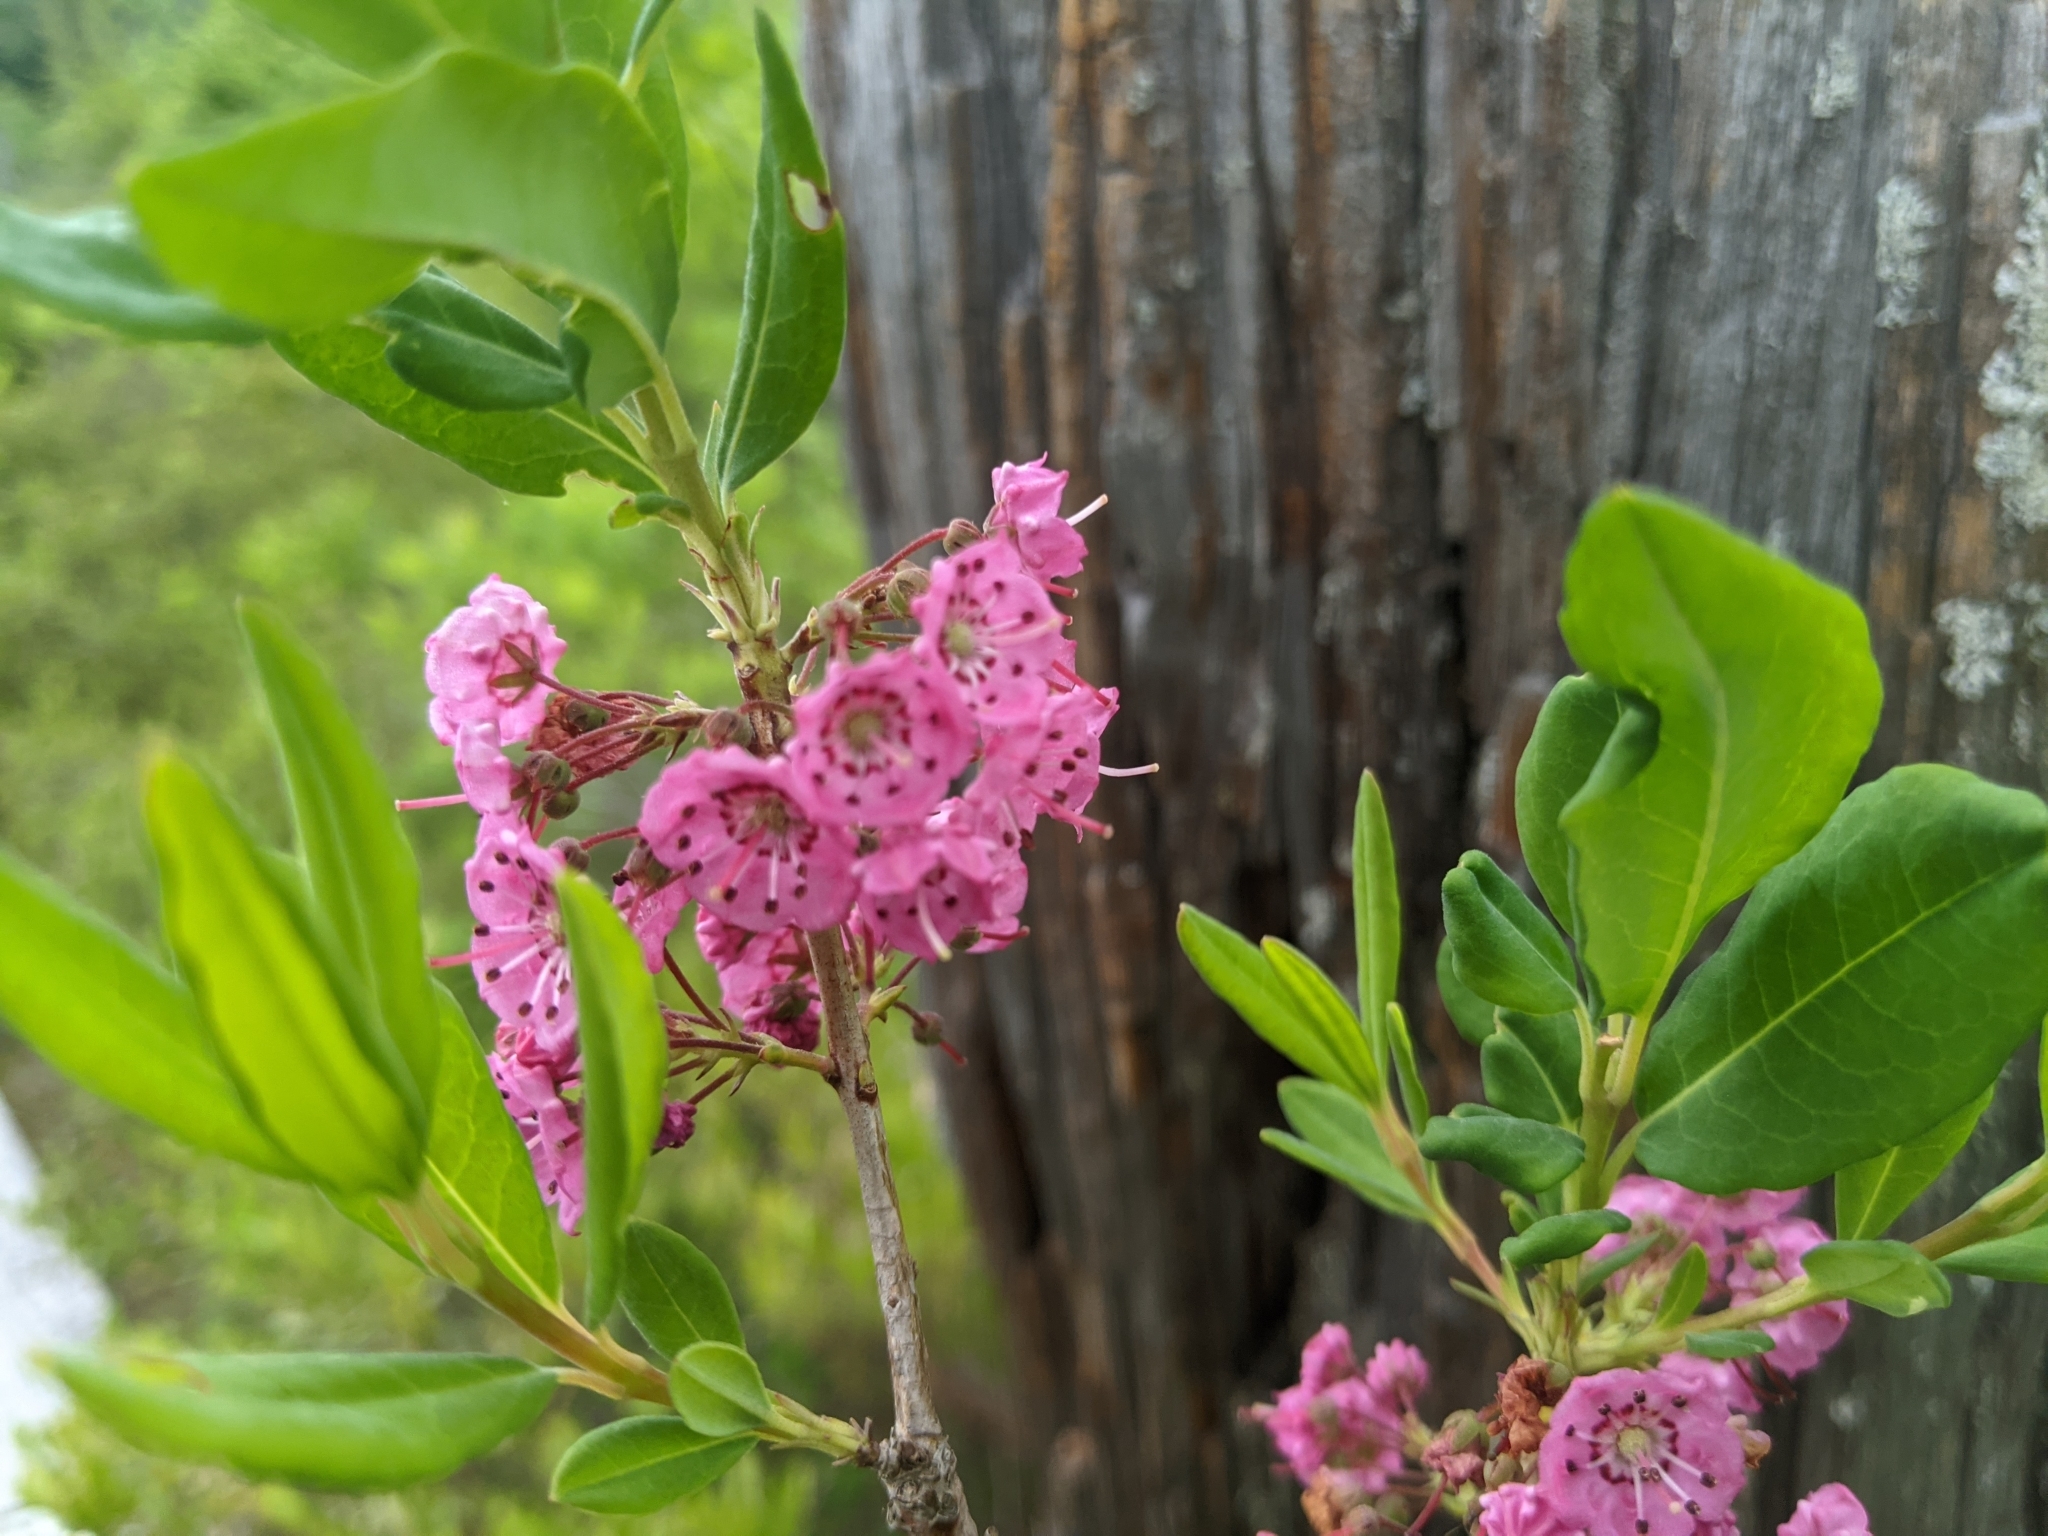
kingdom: Plantae
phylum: Tracheophyta
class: Magnoliopsida
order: Ericales
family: Ericaceae
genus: Kalmia
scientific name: Kalmia angustifolia
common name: Sheep-laurel
